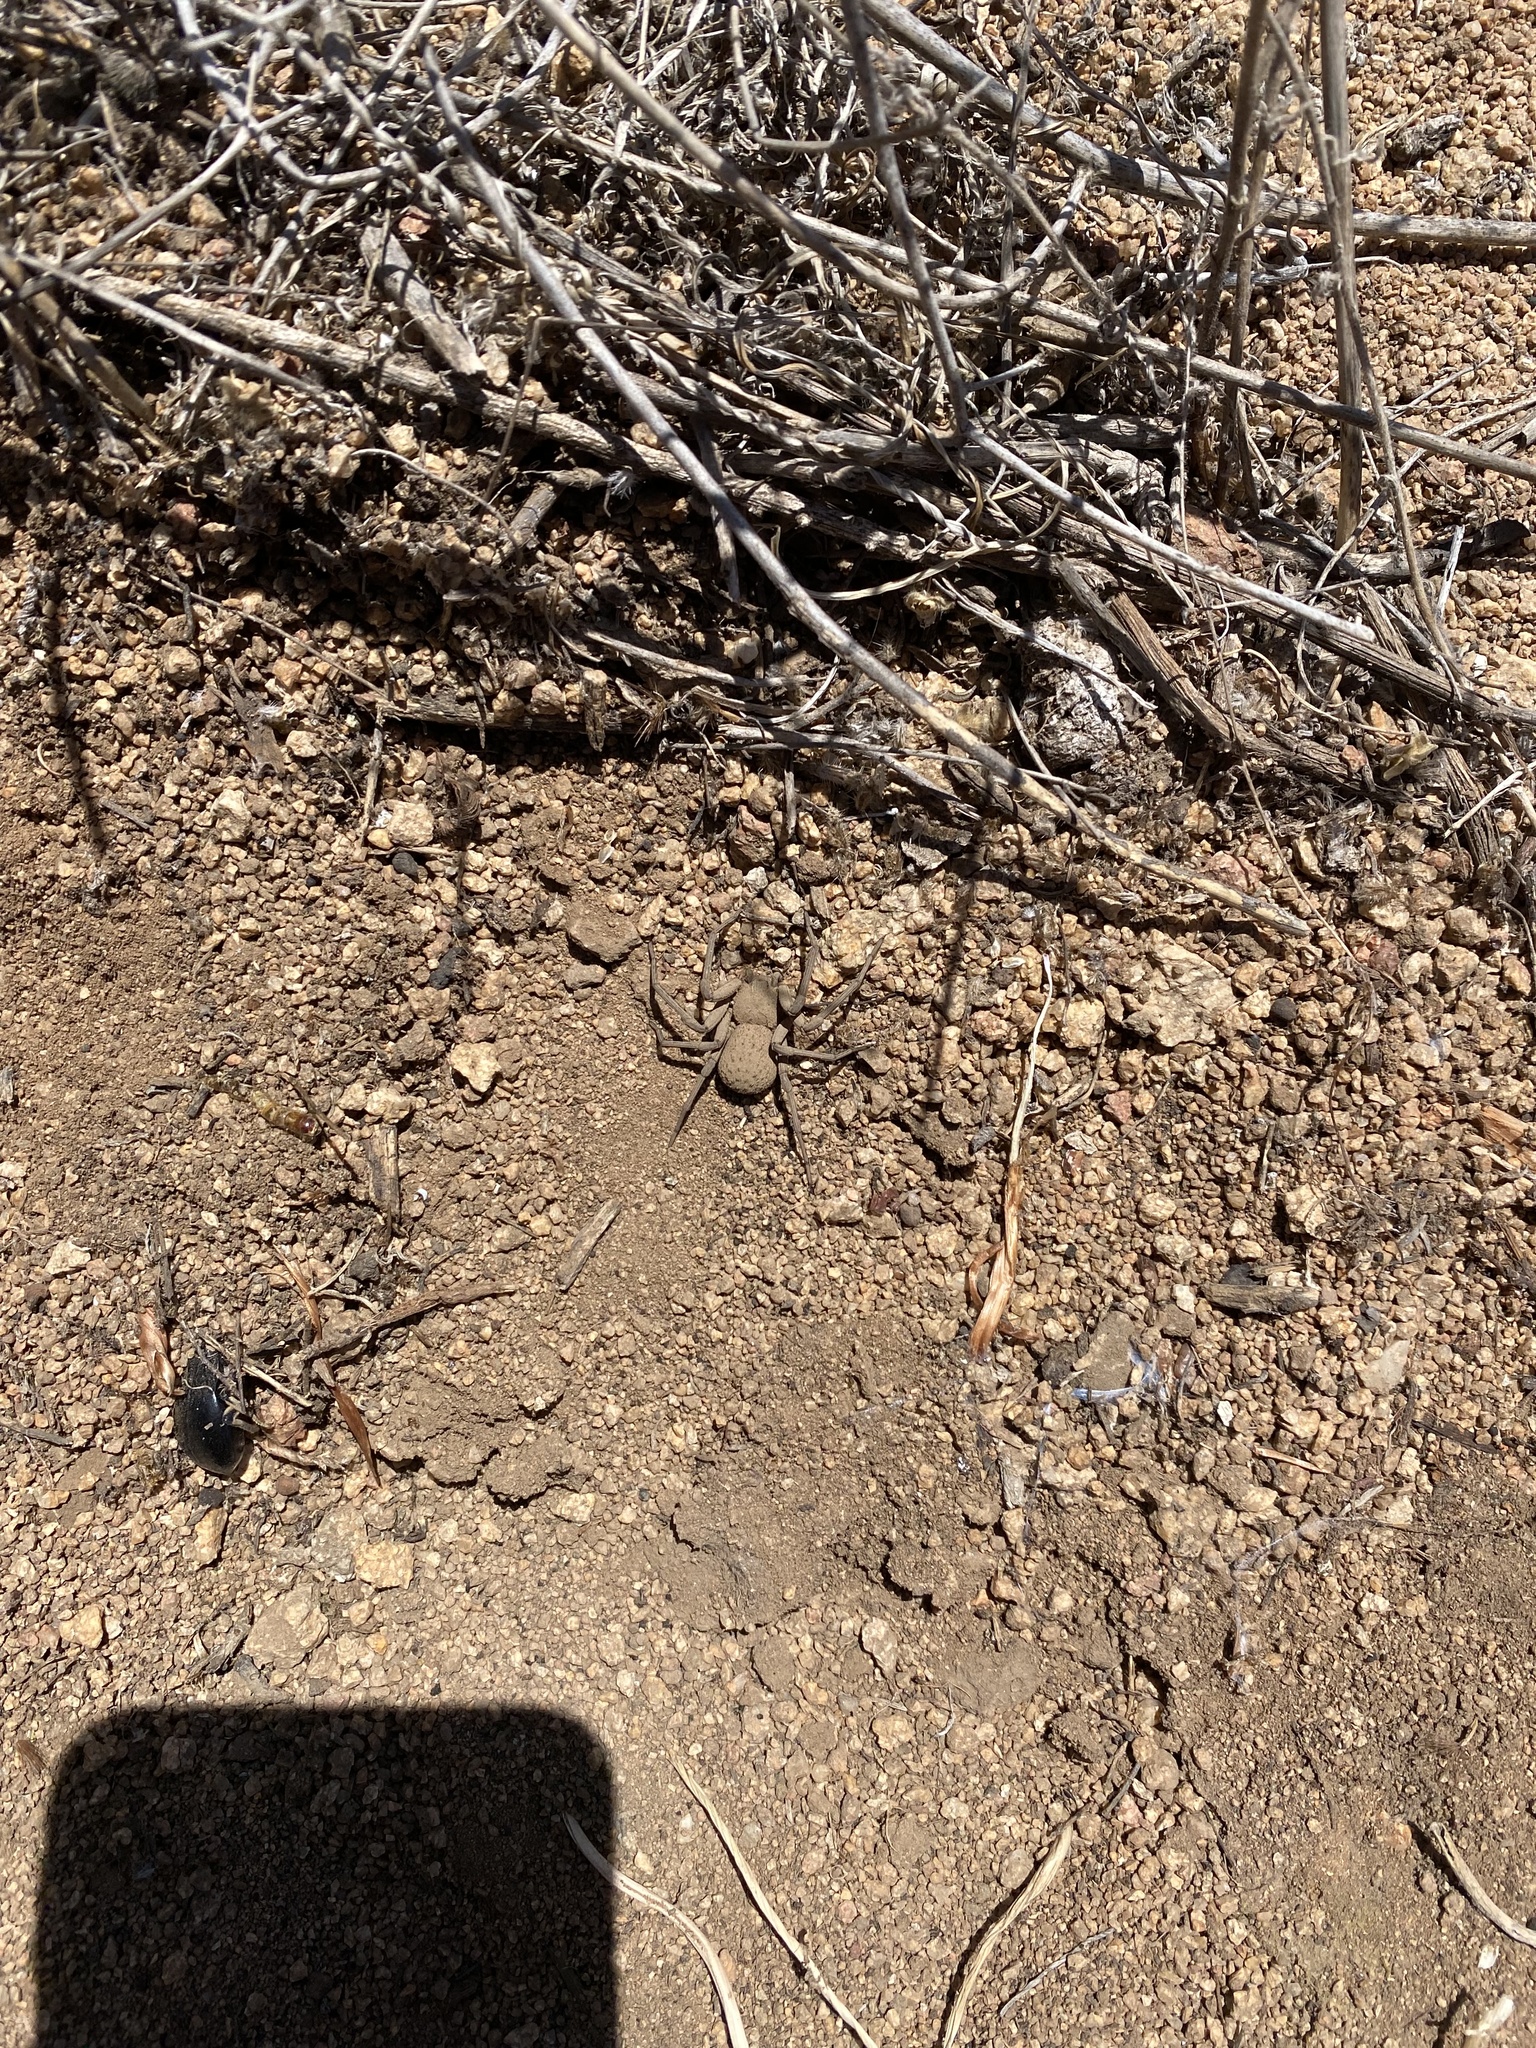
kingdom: Animalia
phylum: Arthropoda
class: Arachnida
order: Araneae
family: Sicariidae
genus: Sicarius
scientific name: Sicarius thomisoides
